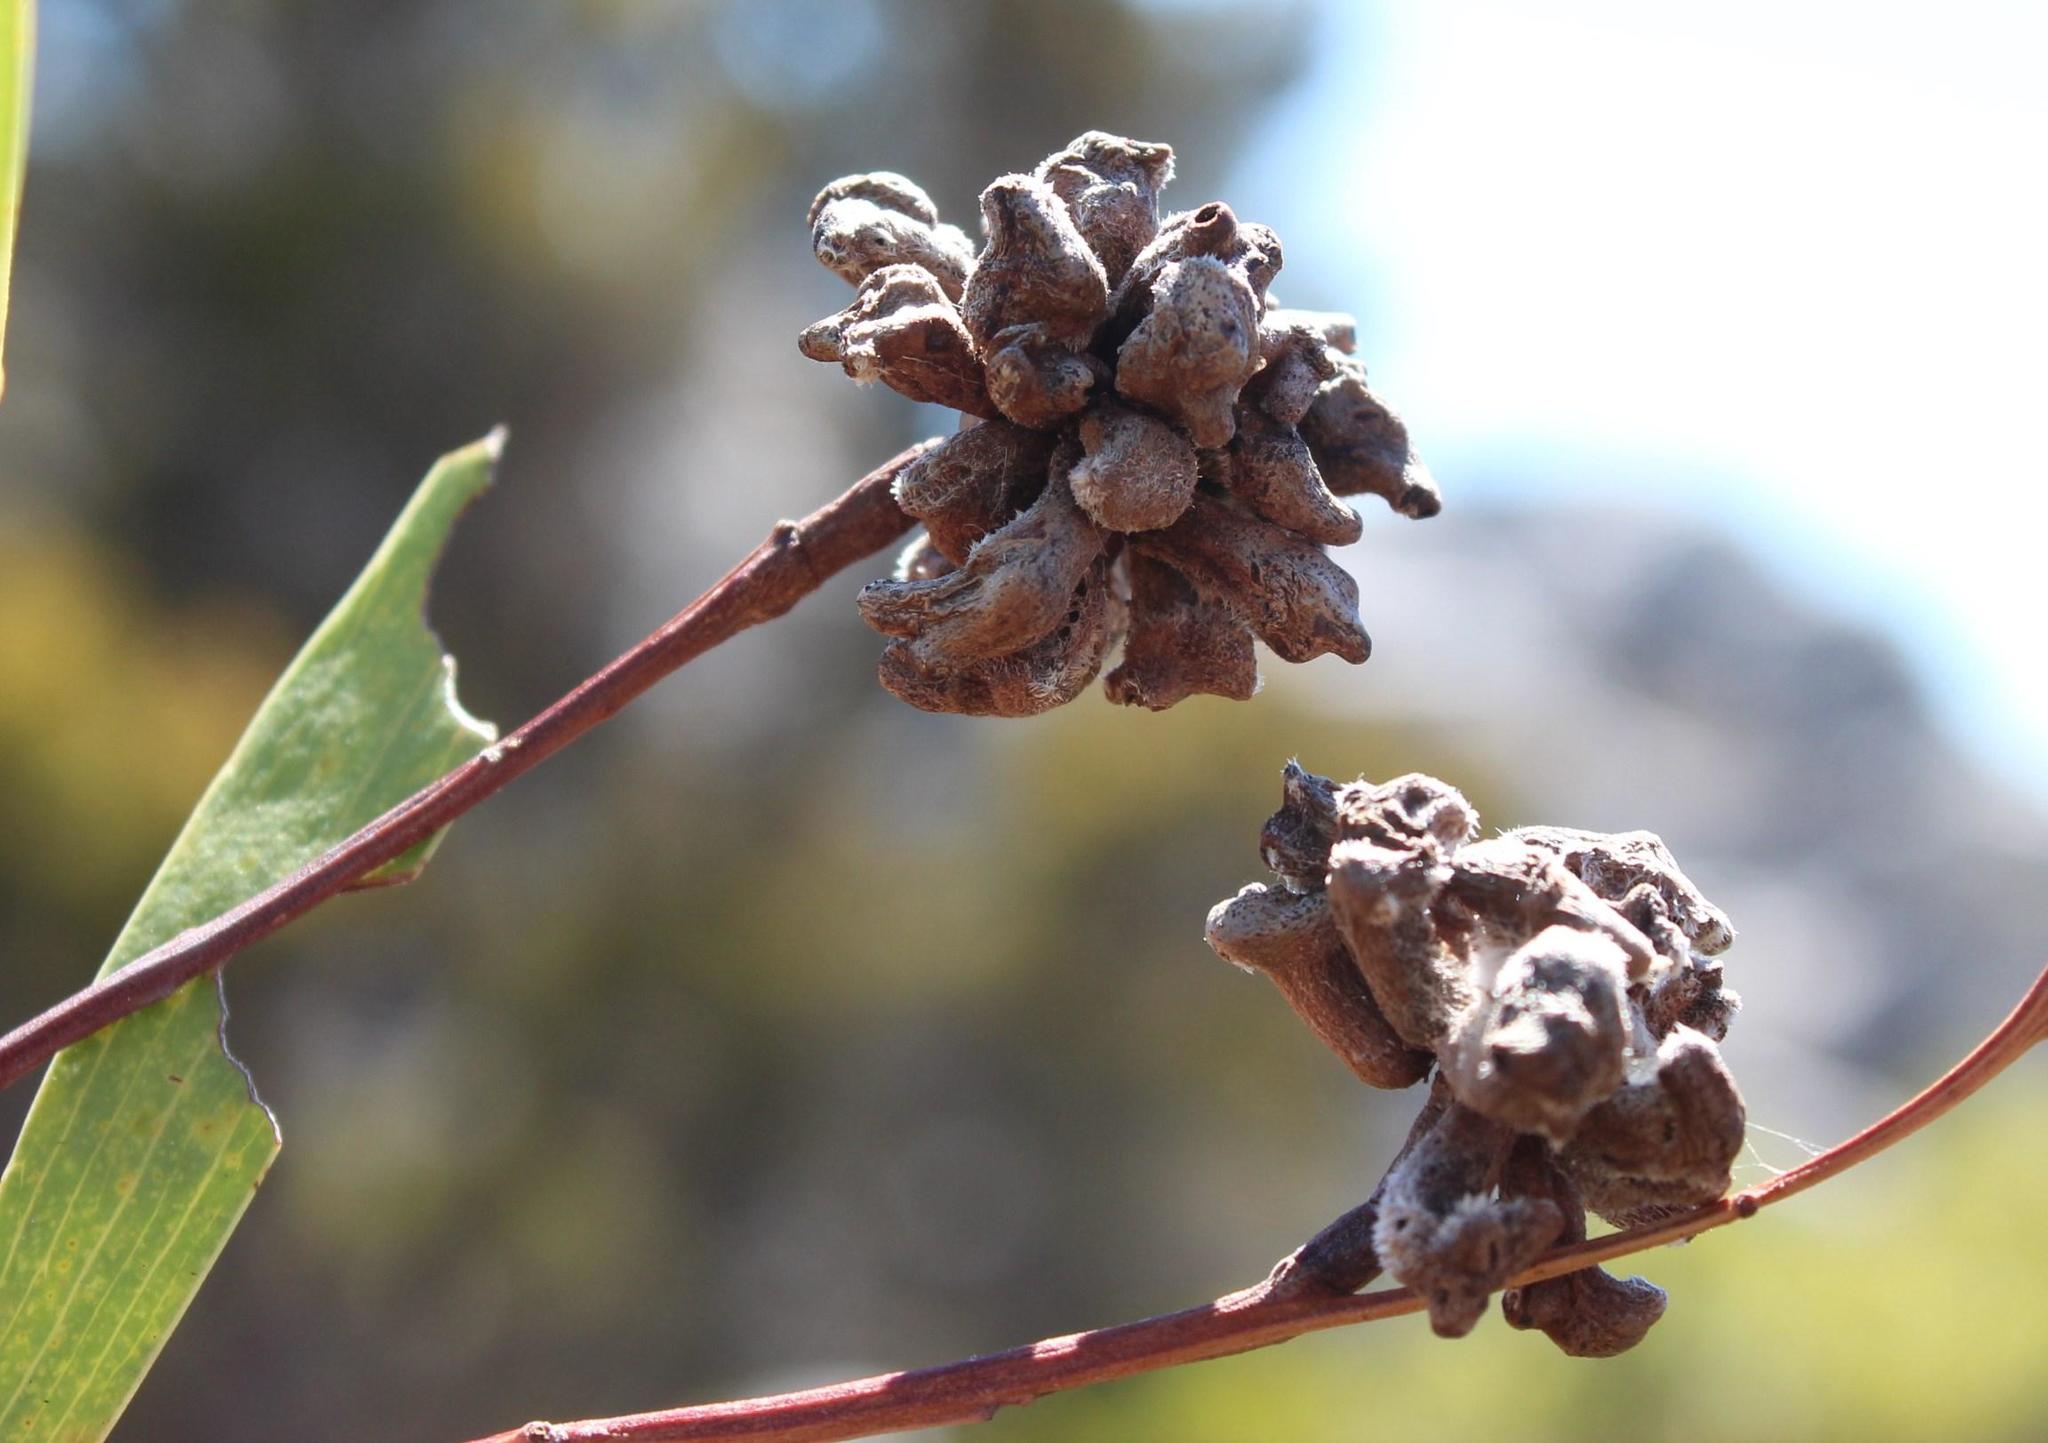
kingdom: Animalia
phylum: Arthropoda
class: Insecta
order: Diptera
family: Cecidomyiidae
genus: Dasineura
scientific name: Dasineura dielsi
